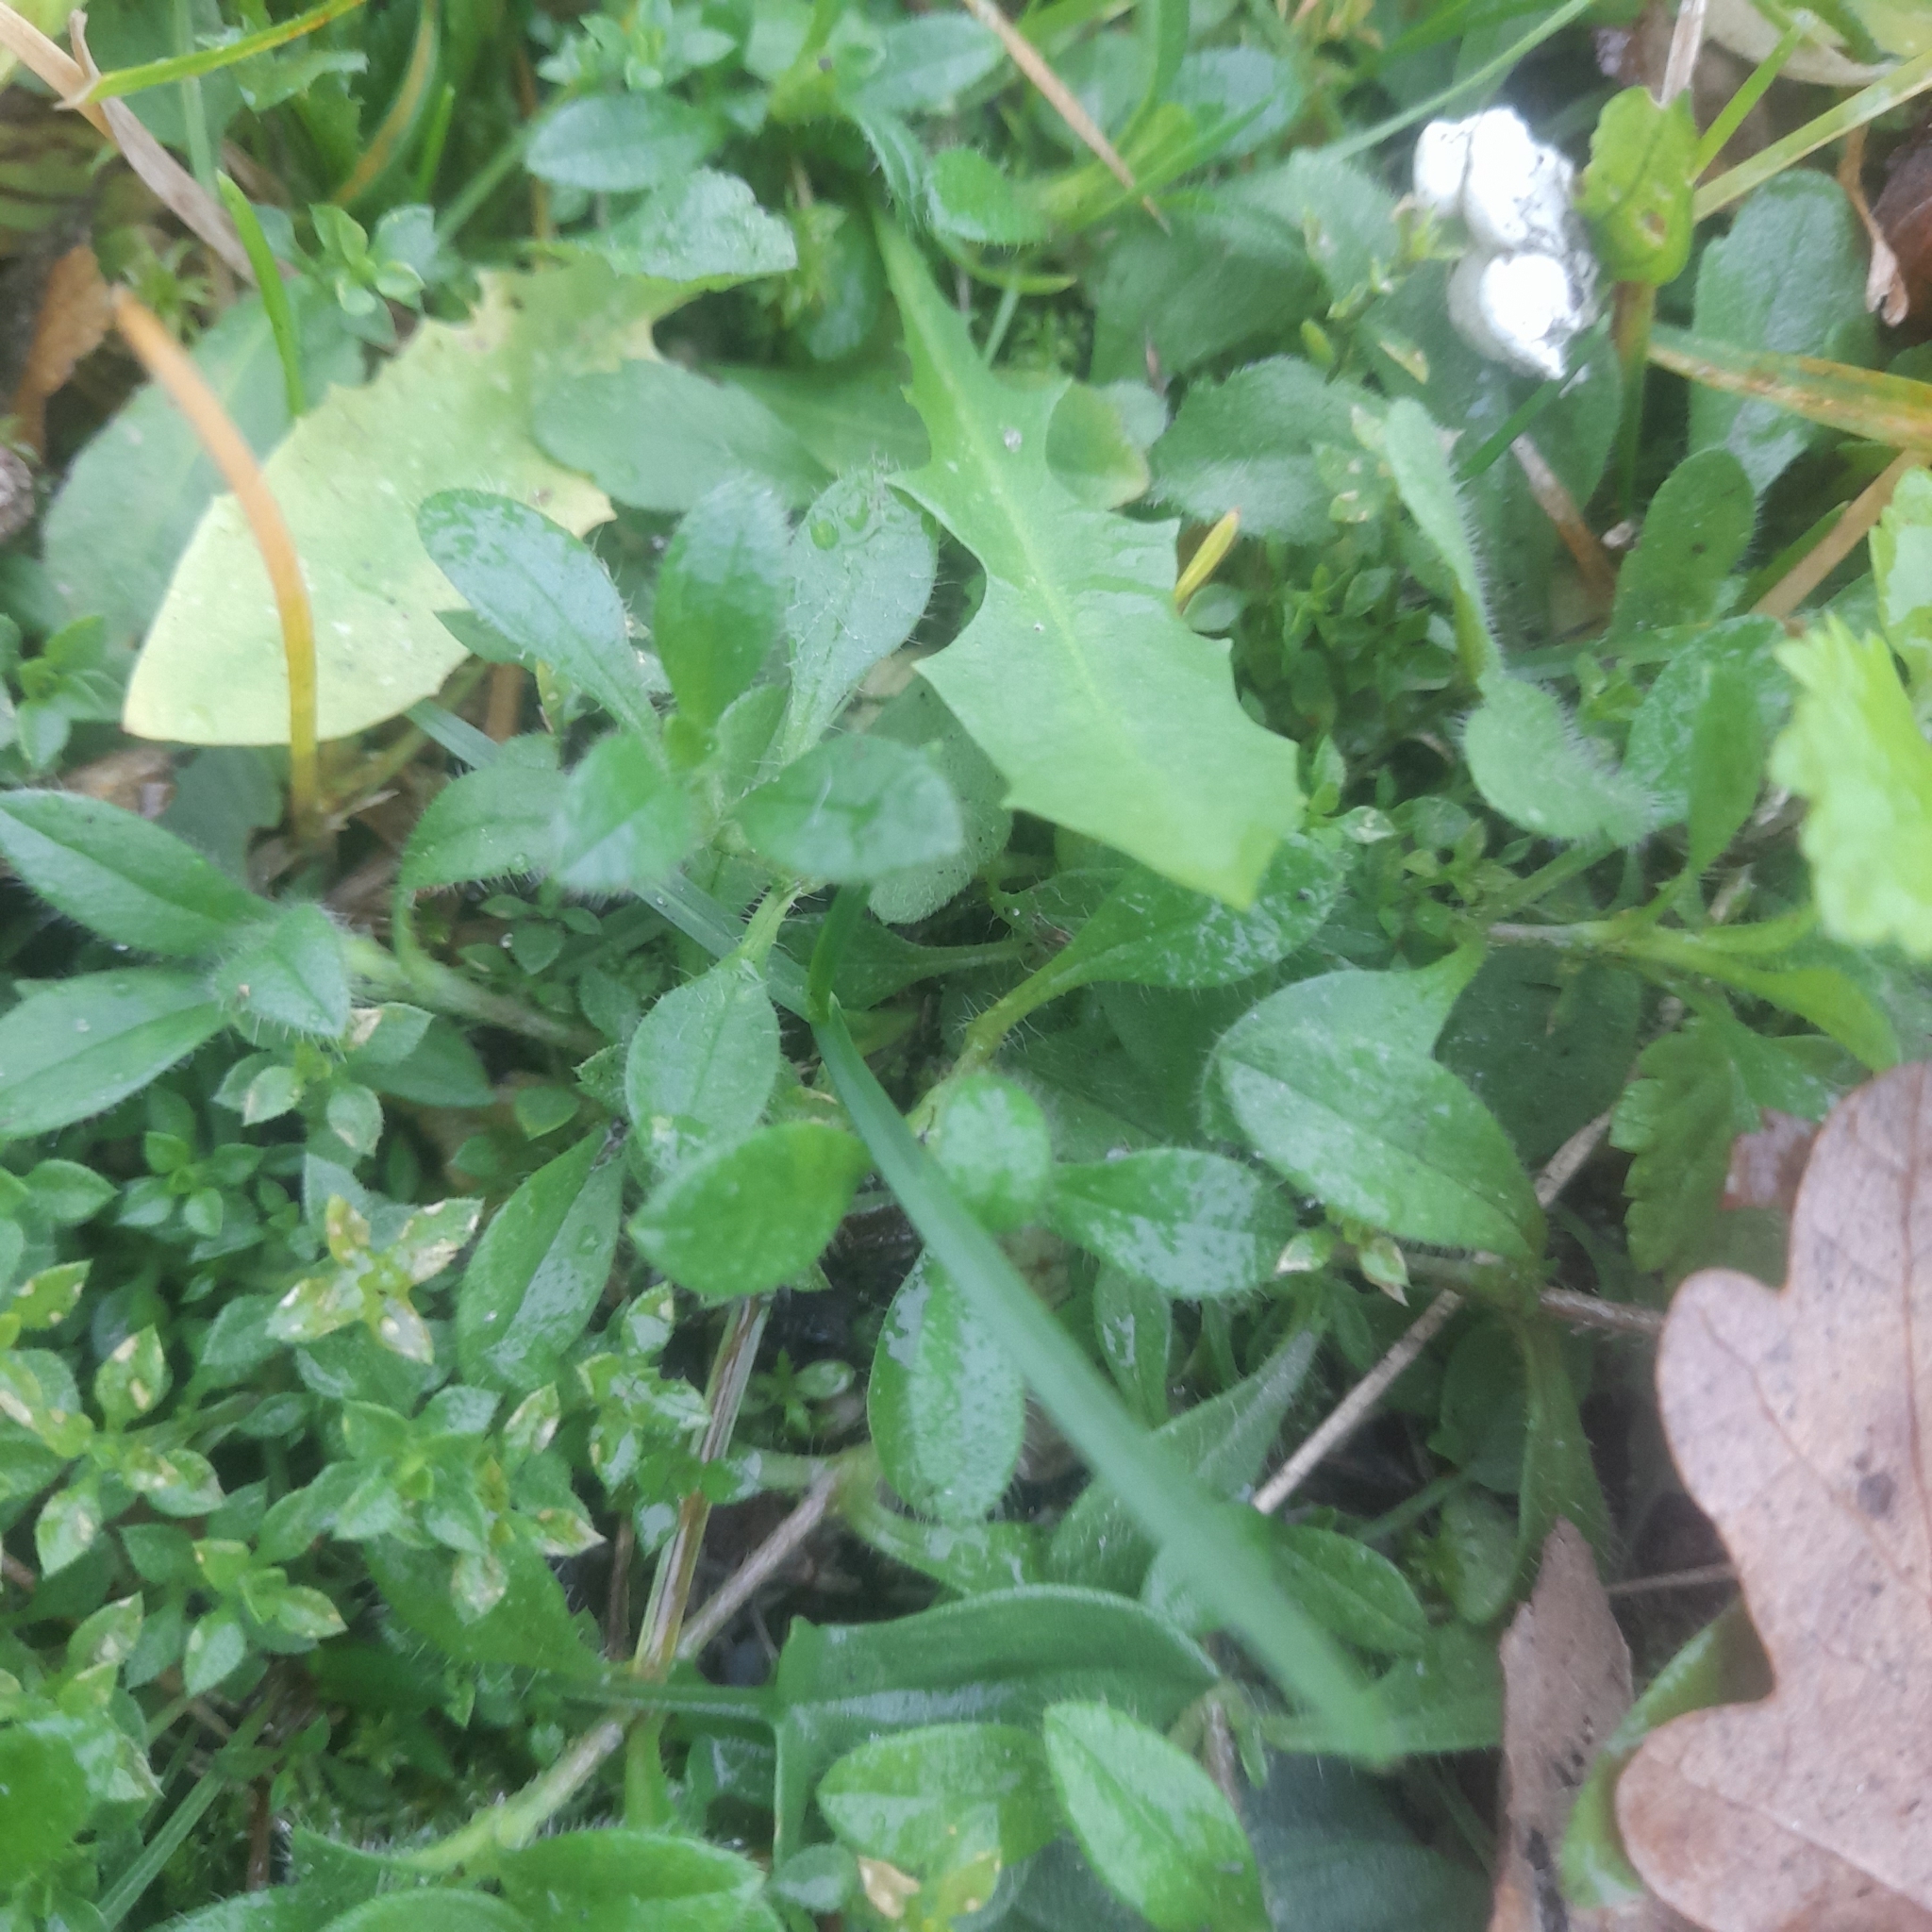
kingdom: Plantae
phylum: Tracheophyta
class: Magnoliopsida
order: Caryophyllales
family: Caryophyllaceae
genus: Cerastium
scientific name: Cerastium holosteoides
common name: Big chickweed
